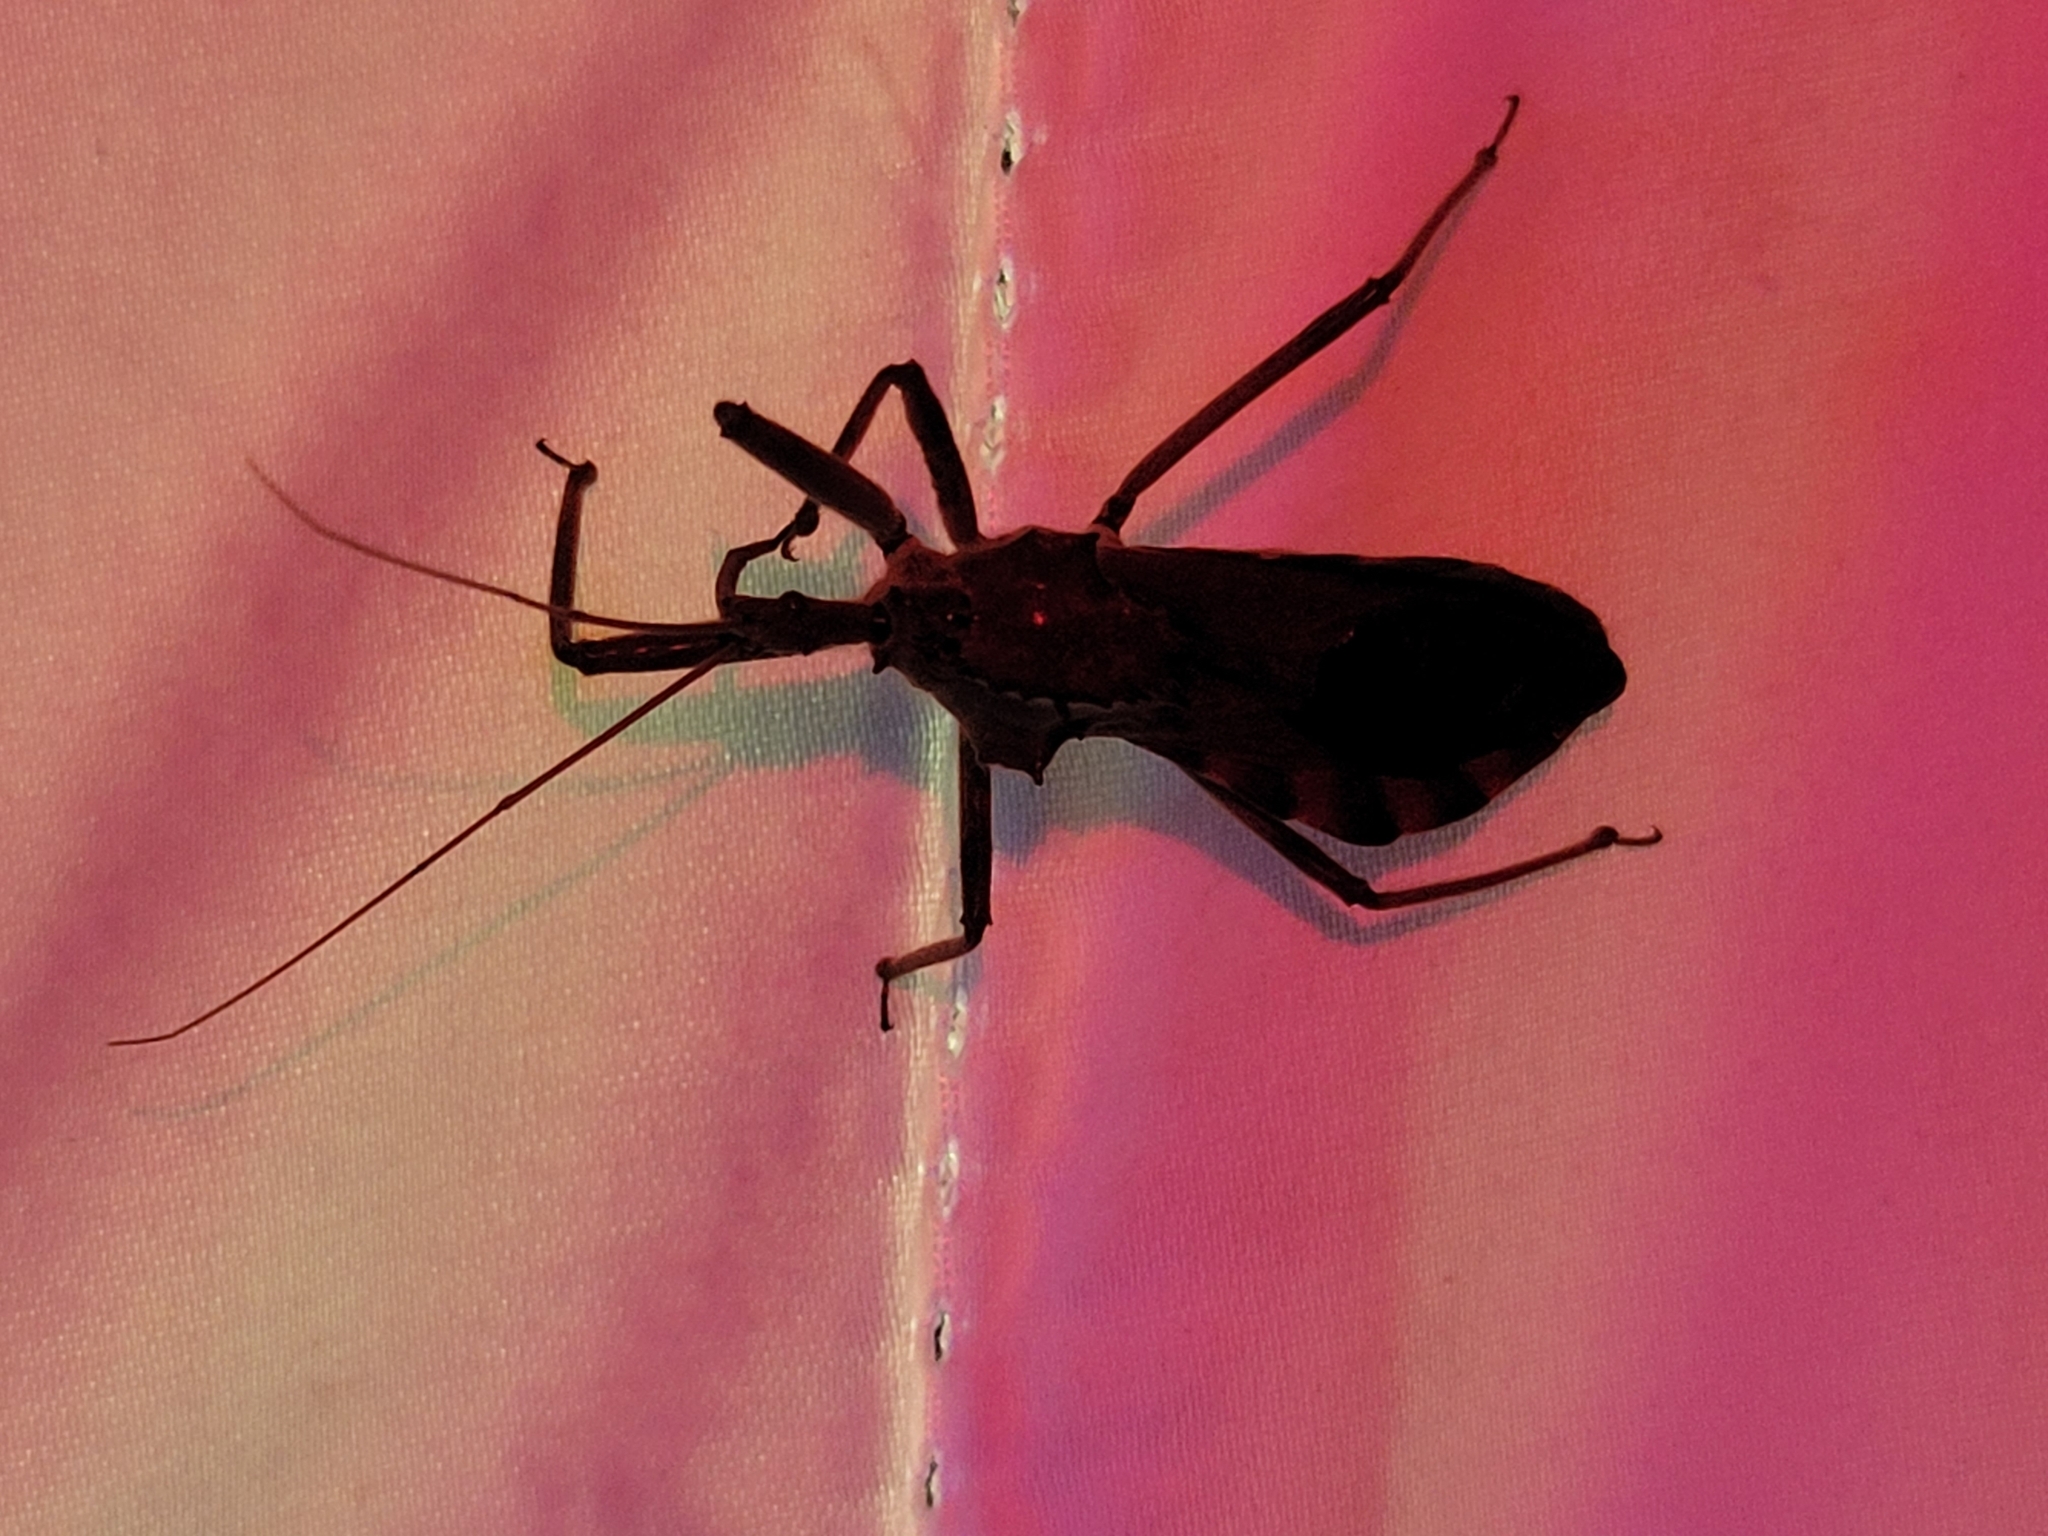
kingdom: Animalia
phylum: Arthropoda
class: Insecta
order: Hemiptera
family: Reduviidae
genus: Arilus
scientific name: Arilus cristatus
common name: North american wheel bug
